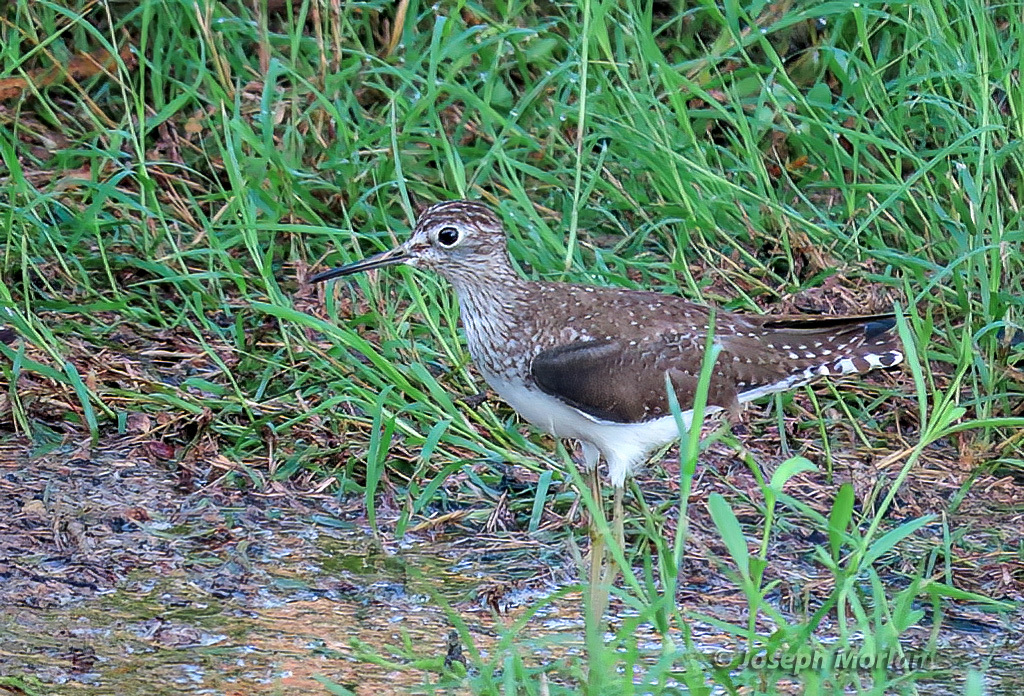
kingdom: Animalia
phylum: Chordata
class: Aves
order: Charadriiformes
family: Scolopacidae
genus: Tringa
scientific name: Tringa solitaria
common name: Solitary sandpiper
